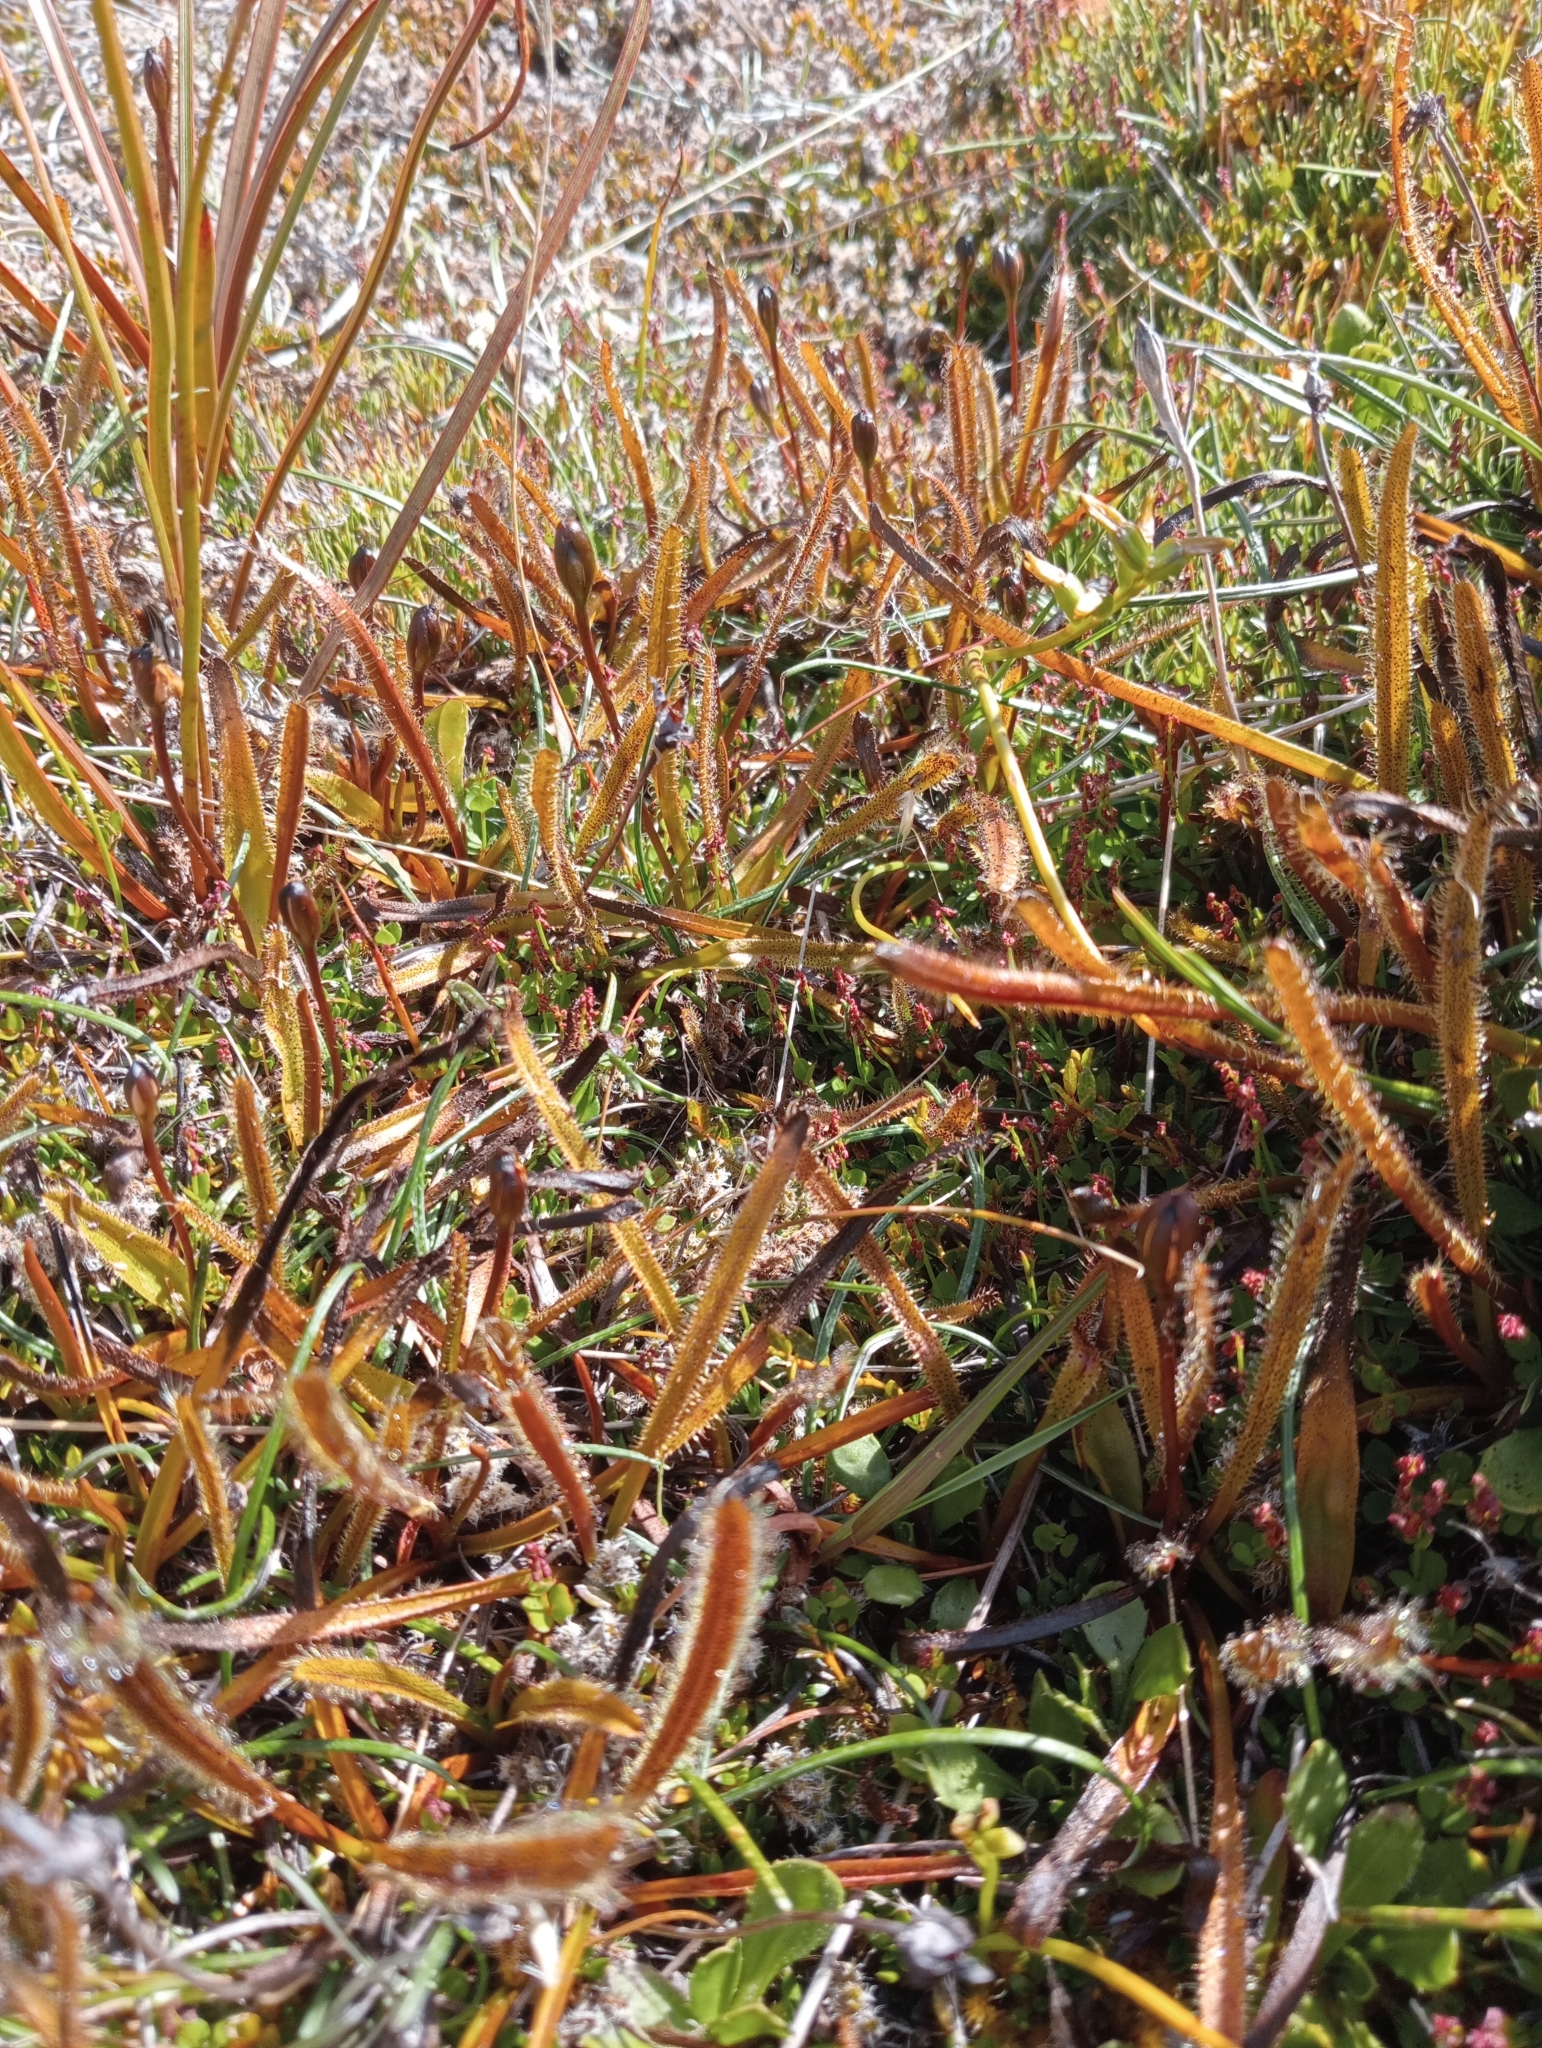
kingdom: Plantae
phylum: Tracheophyta
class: Magnoliopsida
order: Caryophyllales
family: Droseraceae
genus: Drosera
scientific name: Drosera arcturi
